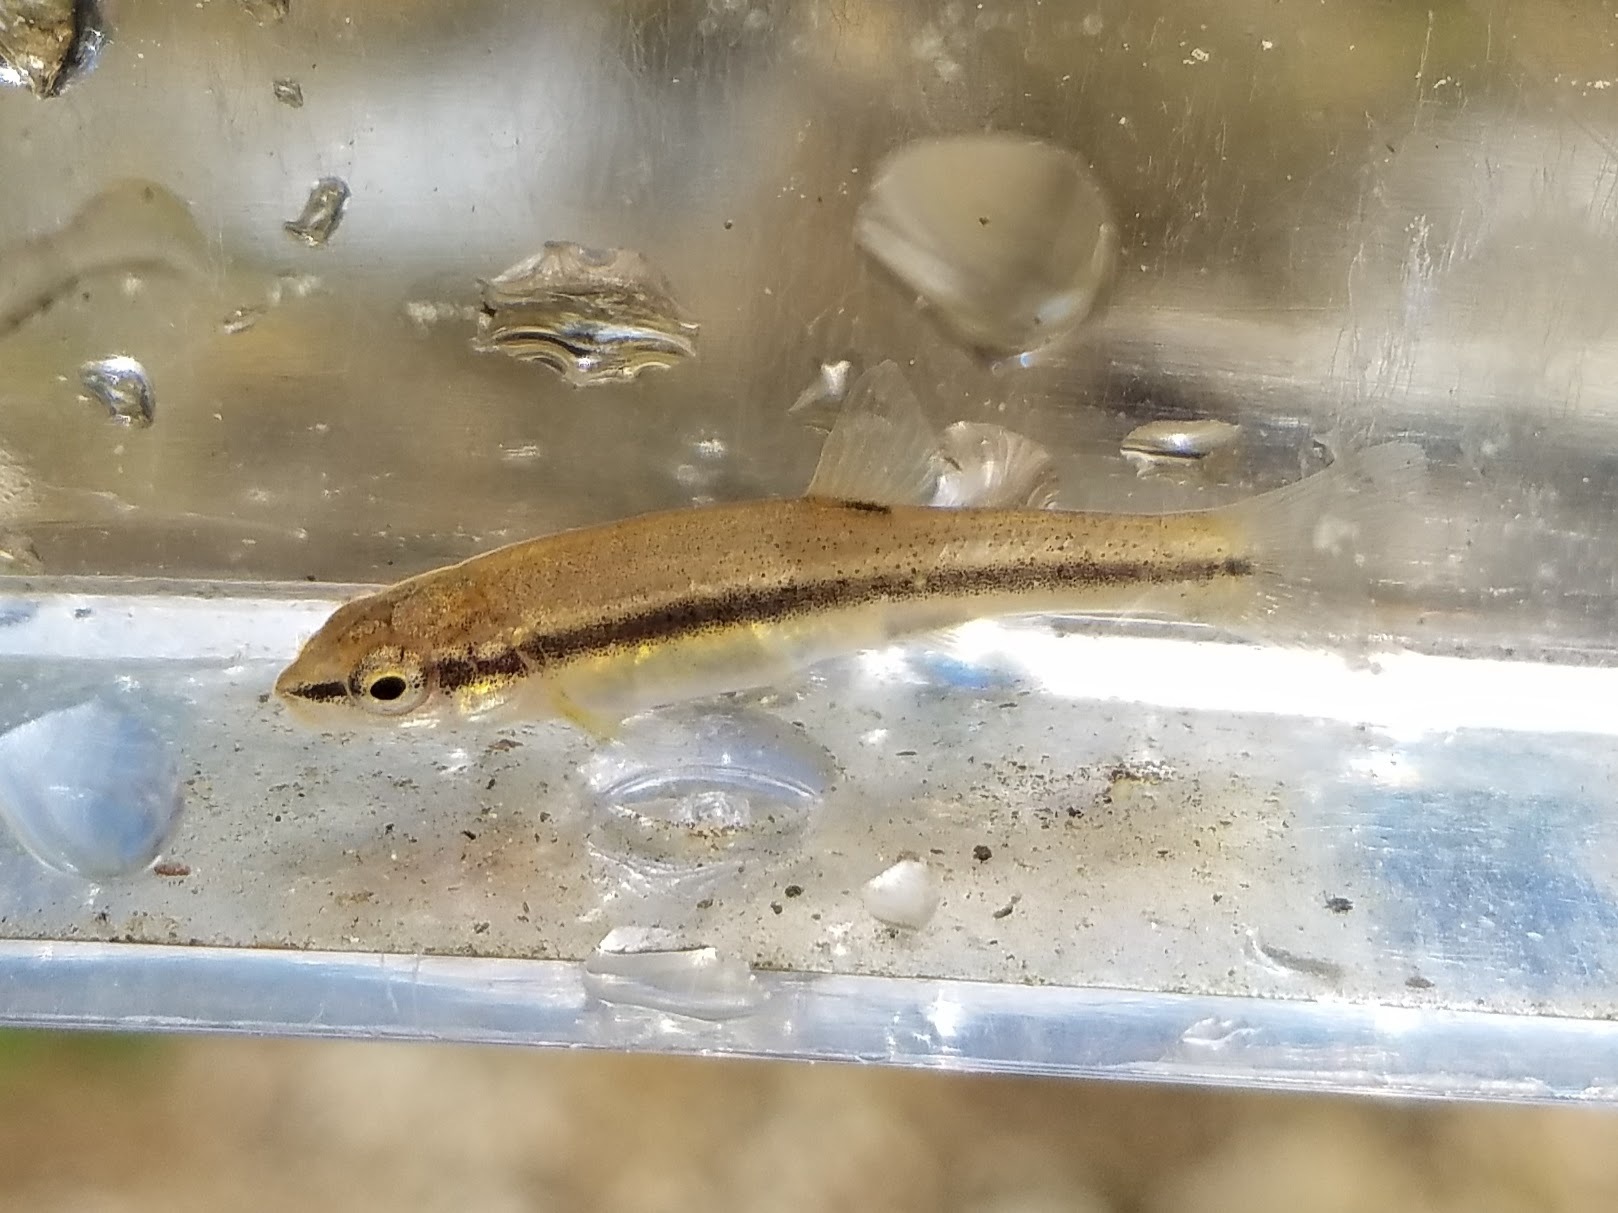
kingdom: Animalia
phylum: Chordata
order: Cypriniformes
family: Cyprinidae
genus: Rhinichthys
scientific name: Rhinichthys obtusus
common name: Western blacknose dace
